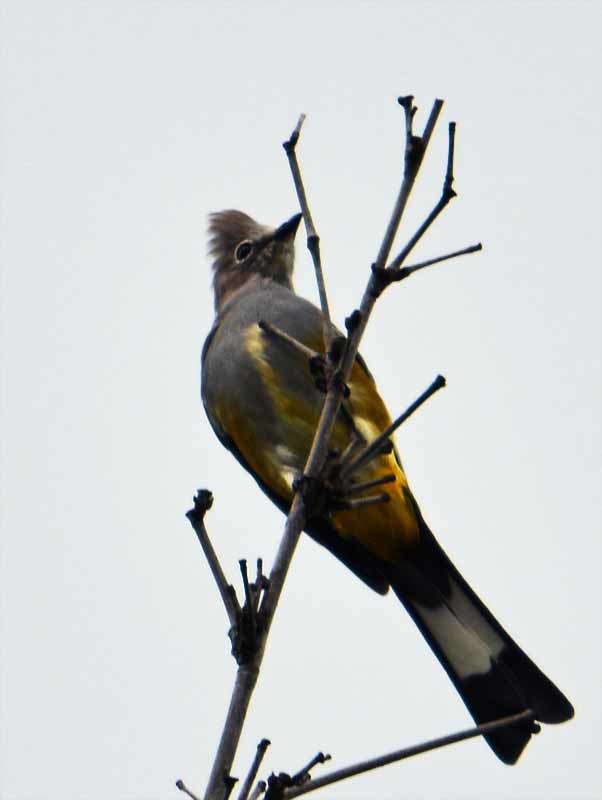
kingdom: Animalia
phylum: Chordata
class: Aves
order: Passeriformes
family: Ptilogonatidae
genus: Ptilogonys
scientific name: Ptilogonys cinereus
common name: Gray silky-flycatcher
